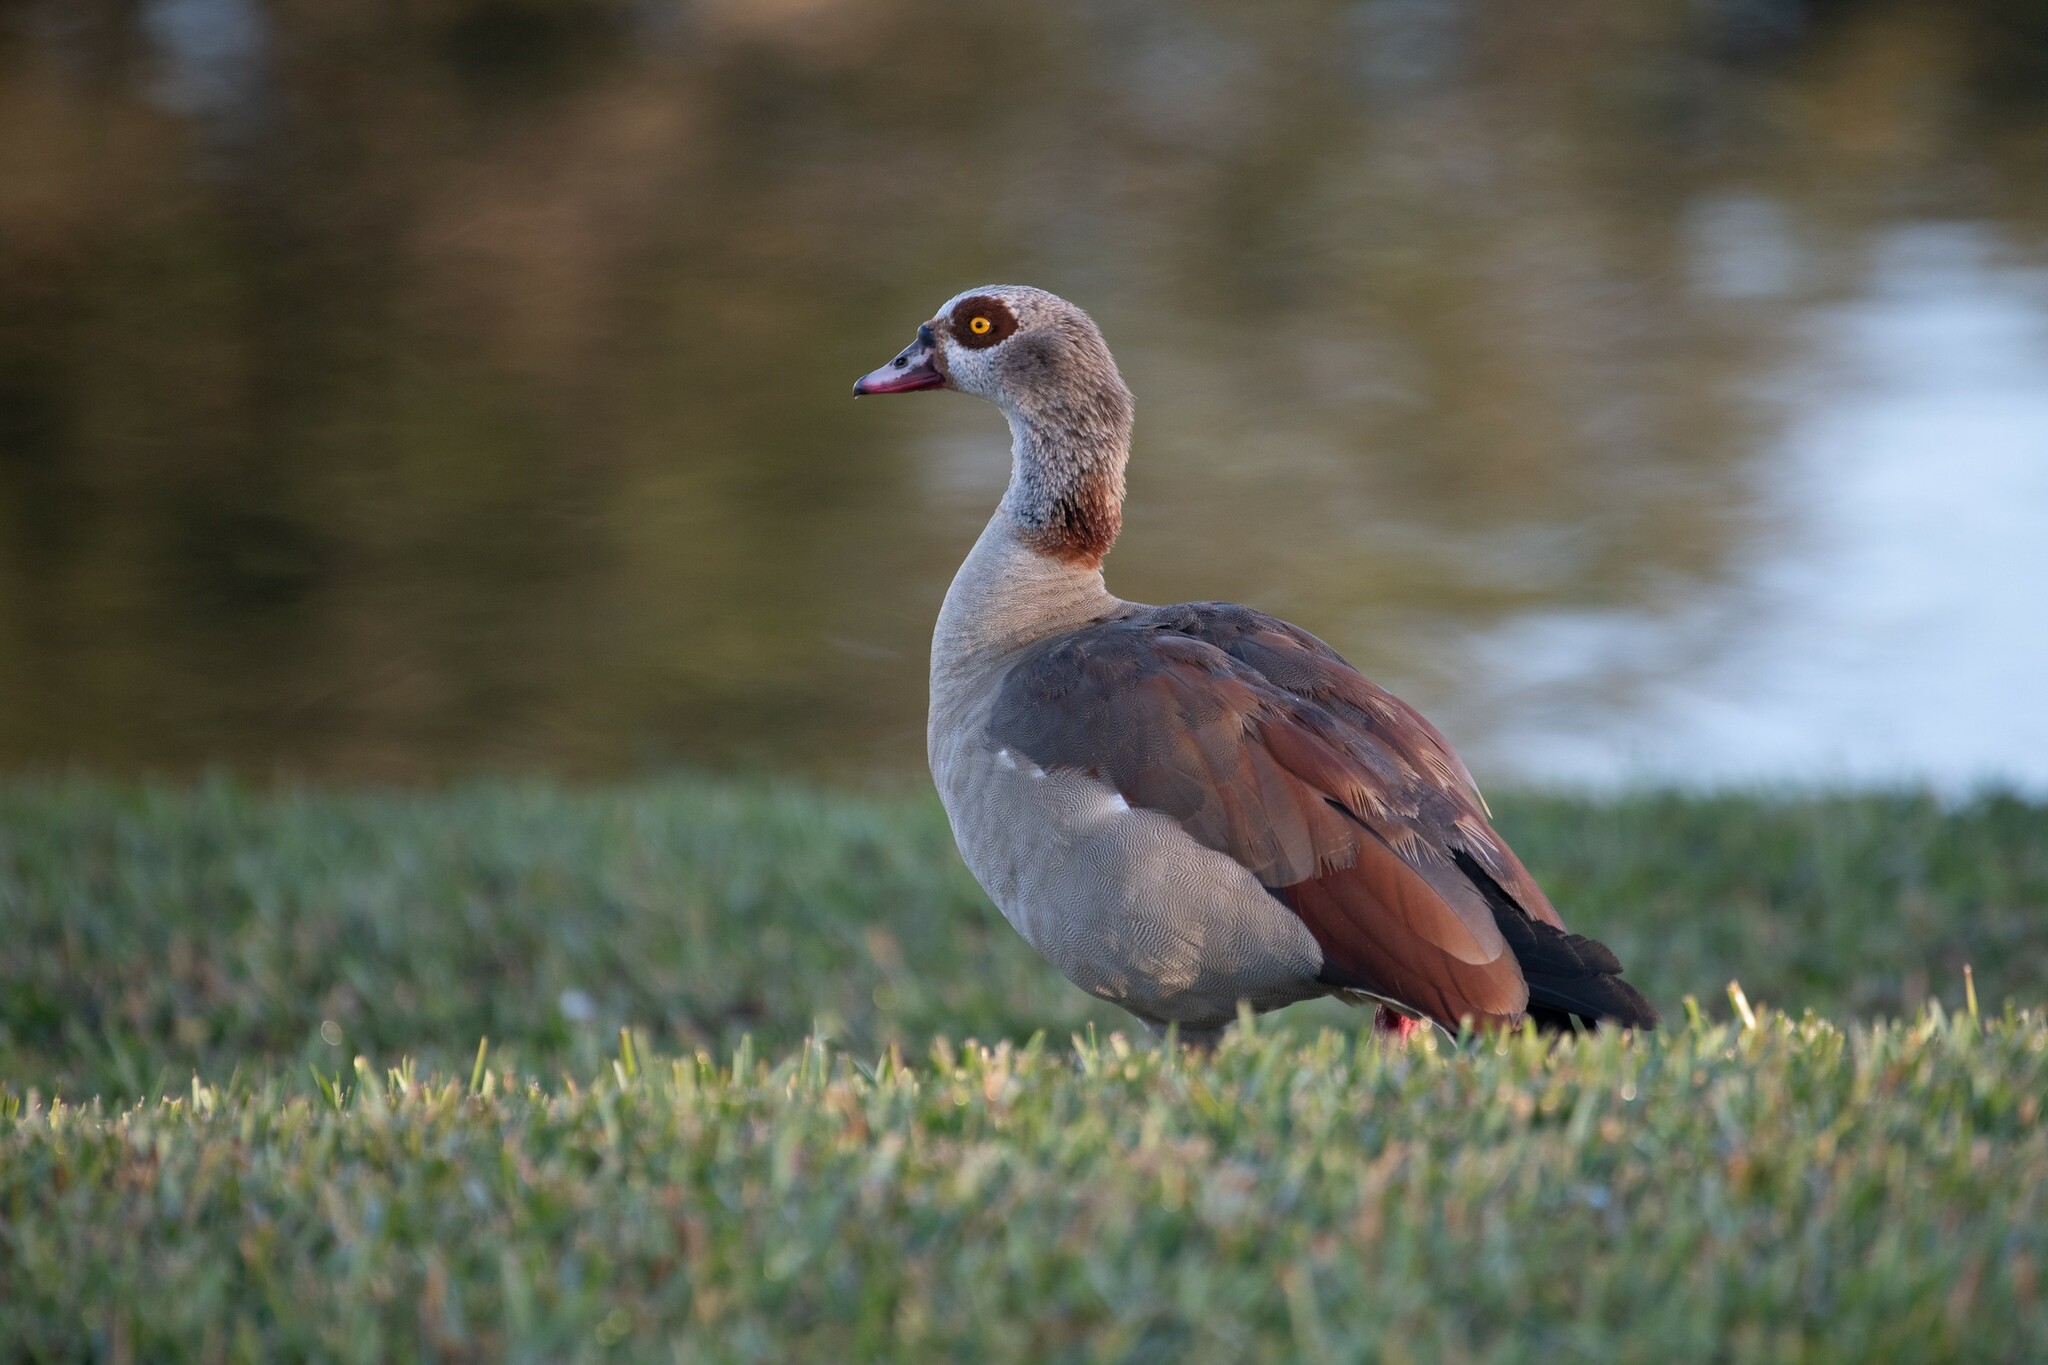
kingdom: Animalia
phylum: Chordata
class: Aves
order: Anseriformes
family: Anatidae
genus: Alopochen
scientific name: Alopochen aegyptiaca
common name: Egyptian goose
